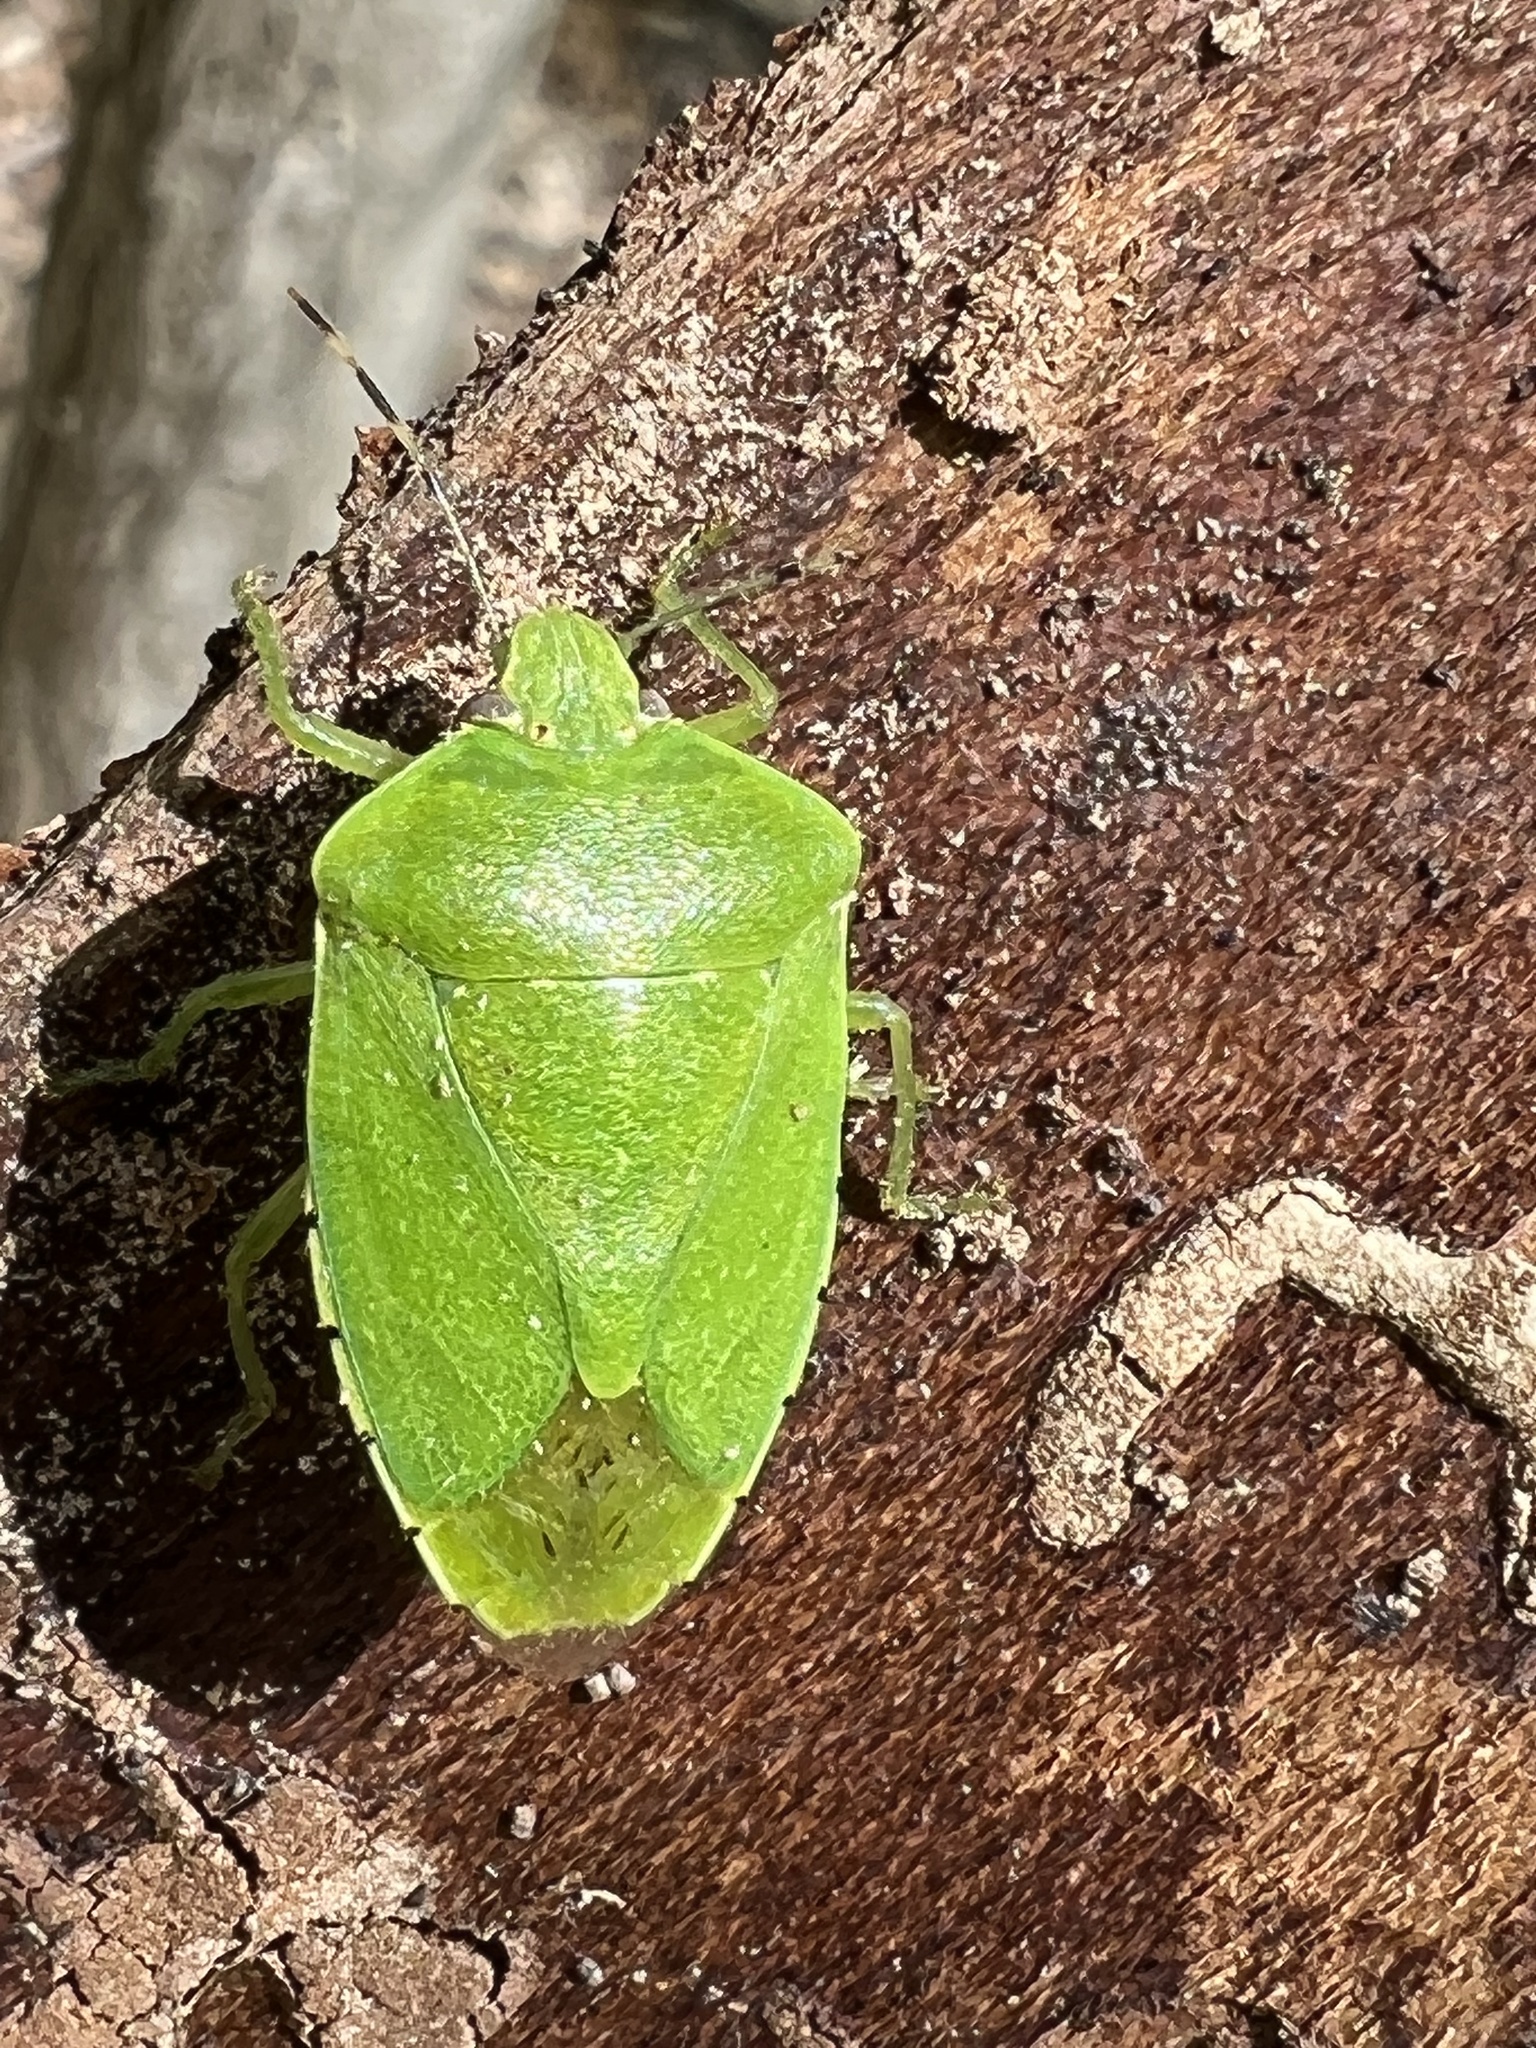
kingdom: Animalia
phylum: Arthropoda
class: Insecta
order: Hemiptera
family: Pentatomidae
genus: Chinavia
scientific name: Chinavia hilaris
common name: Green stink bug
